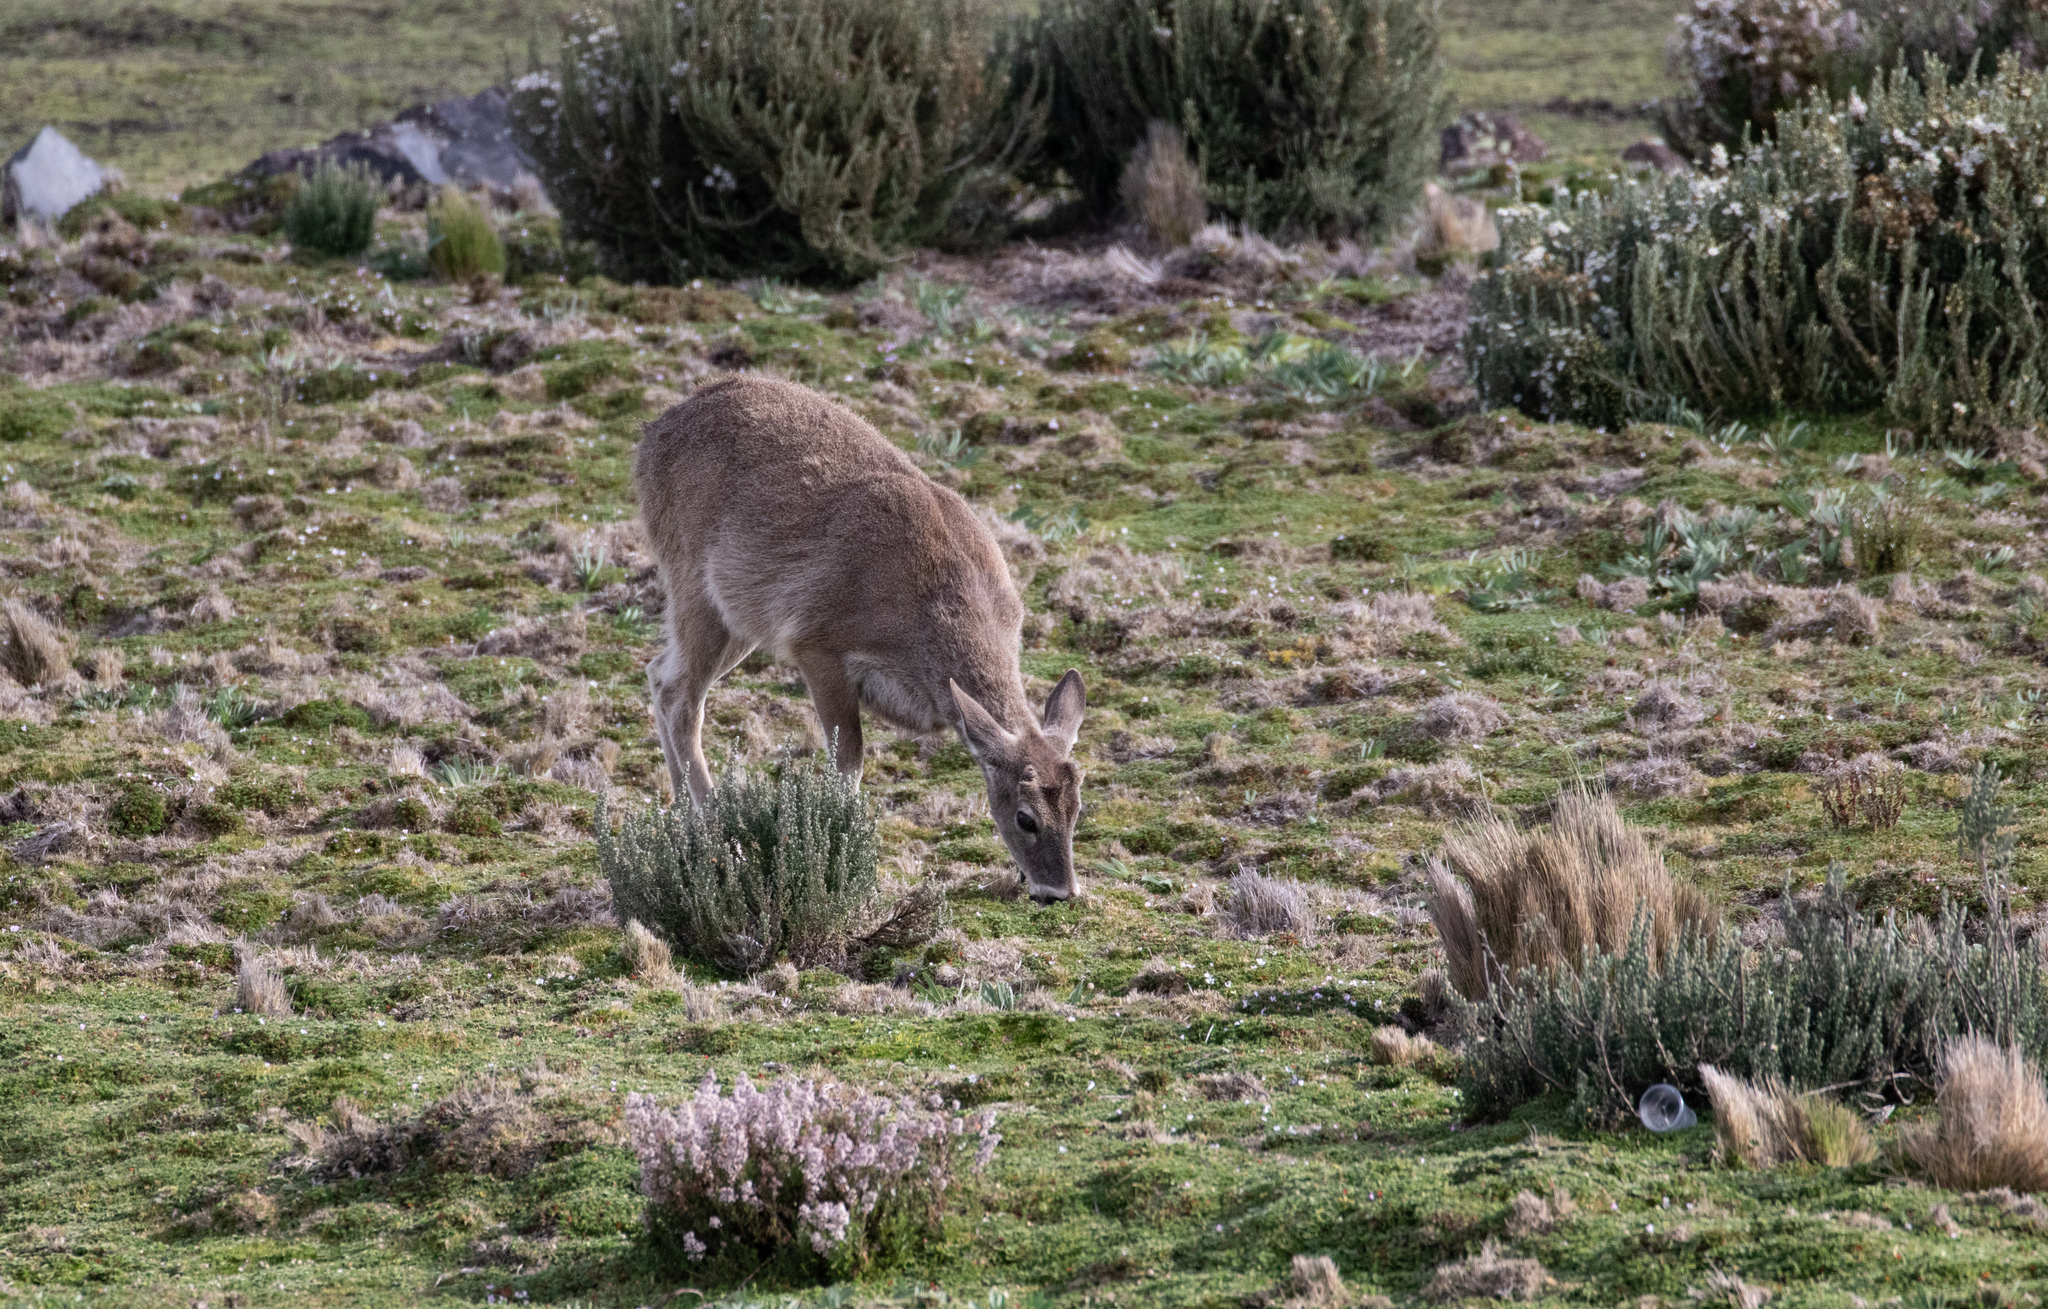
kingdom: Animalia
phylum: Chordata
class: Mammalia
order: Artiodactyla
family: Cervidae
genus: Odocoileus
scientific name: Odocoileus virginianus
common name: White-tailed deer
